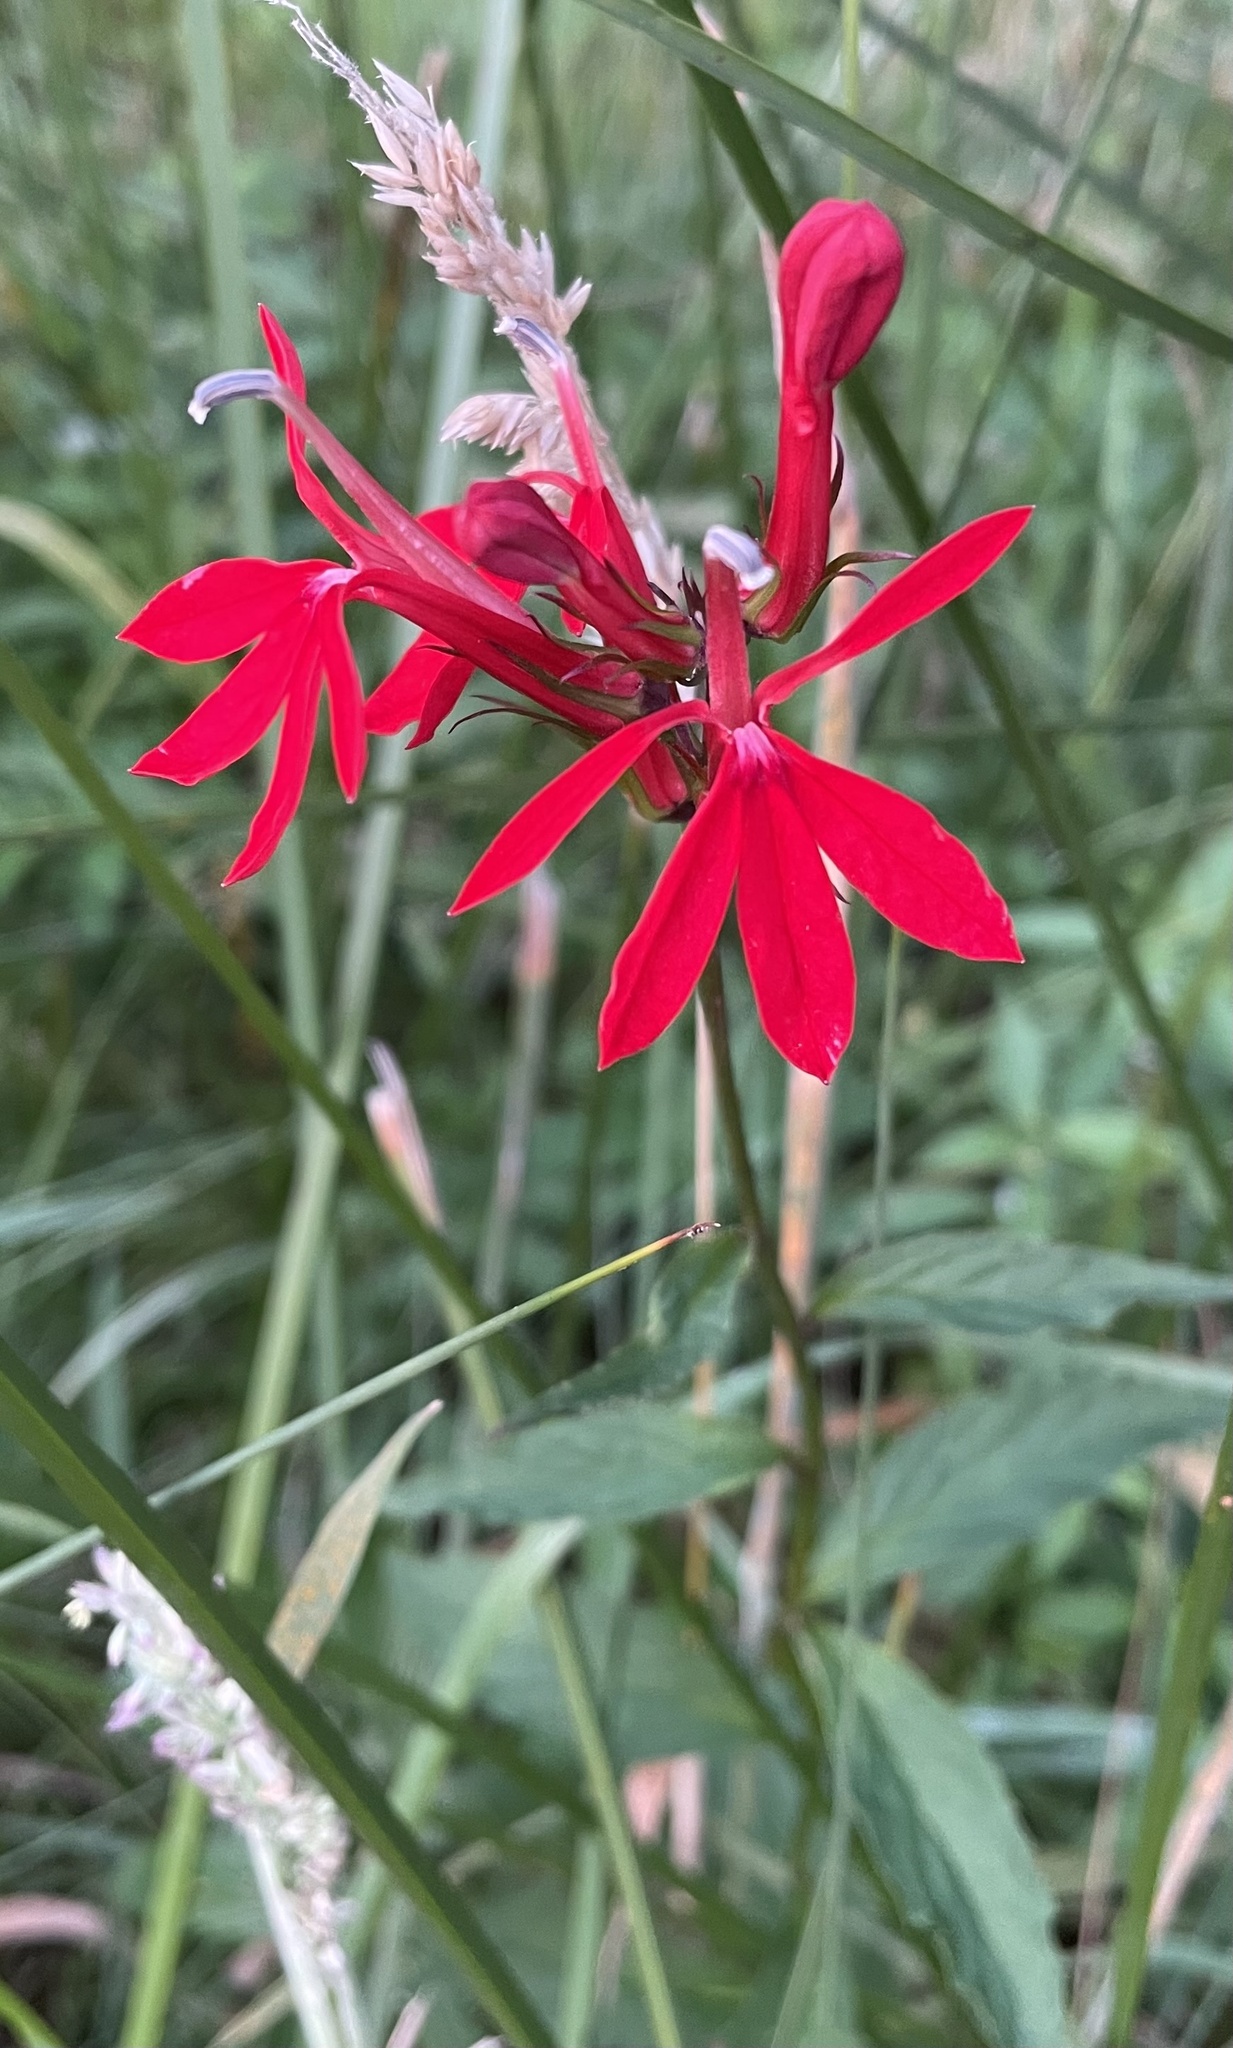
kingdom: Plantae
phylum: Tracheophyta
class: Magnoliopsida
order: Asterales
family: Campanulaceae
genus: Lobelia
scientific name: Lobelia cardinalis
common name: Cardinal flower
